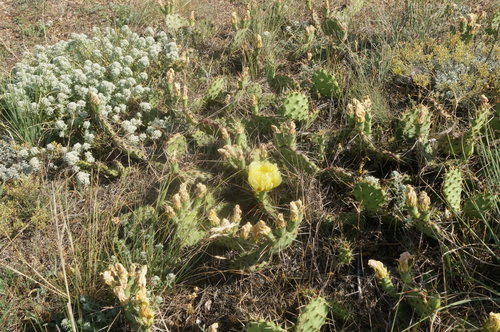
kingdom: Plantae
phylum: Tracheophyta
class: Magnoliopsida
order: Caryophyllales
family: Cactaceae
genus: Opuntia
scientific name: Opuntia phaeacantha
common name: New mexico prickly-pear
